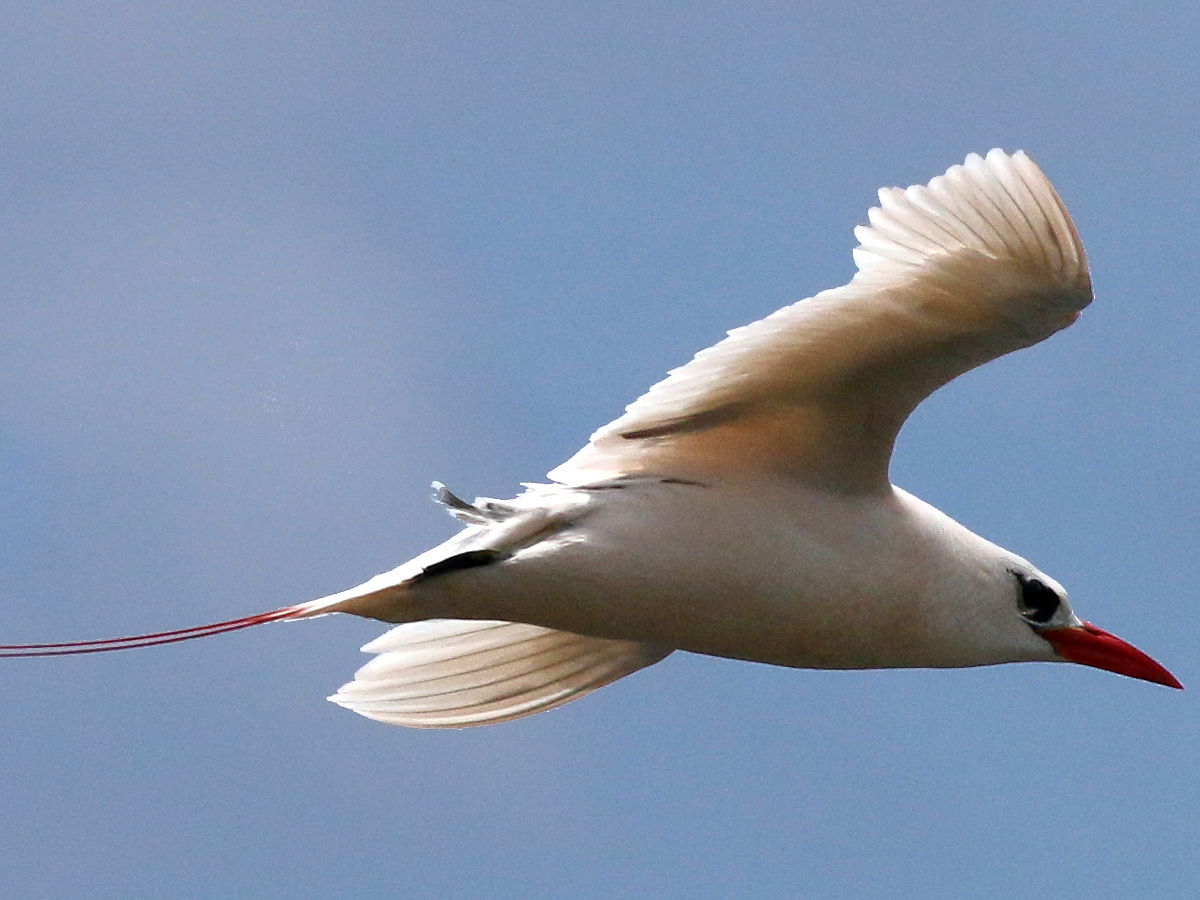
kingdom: Animalia
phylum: Chordata
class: Aves
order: Phaethontiformes
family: Phaethontidae
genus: Phaethon
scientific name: Phaethon rubricauda
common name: Red-tailed tropicbird
